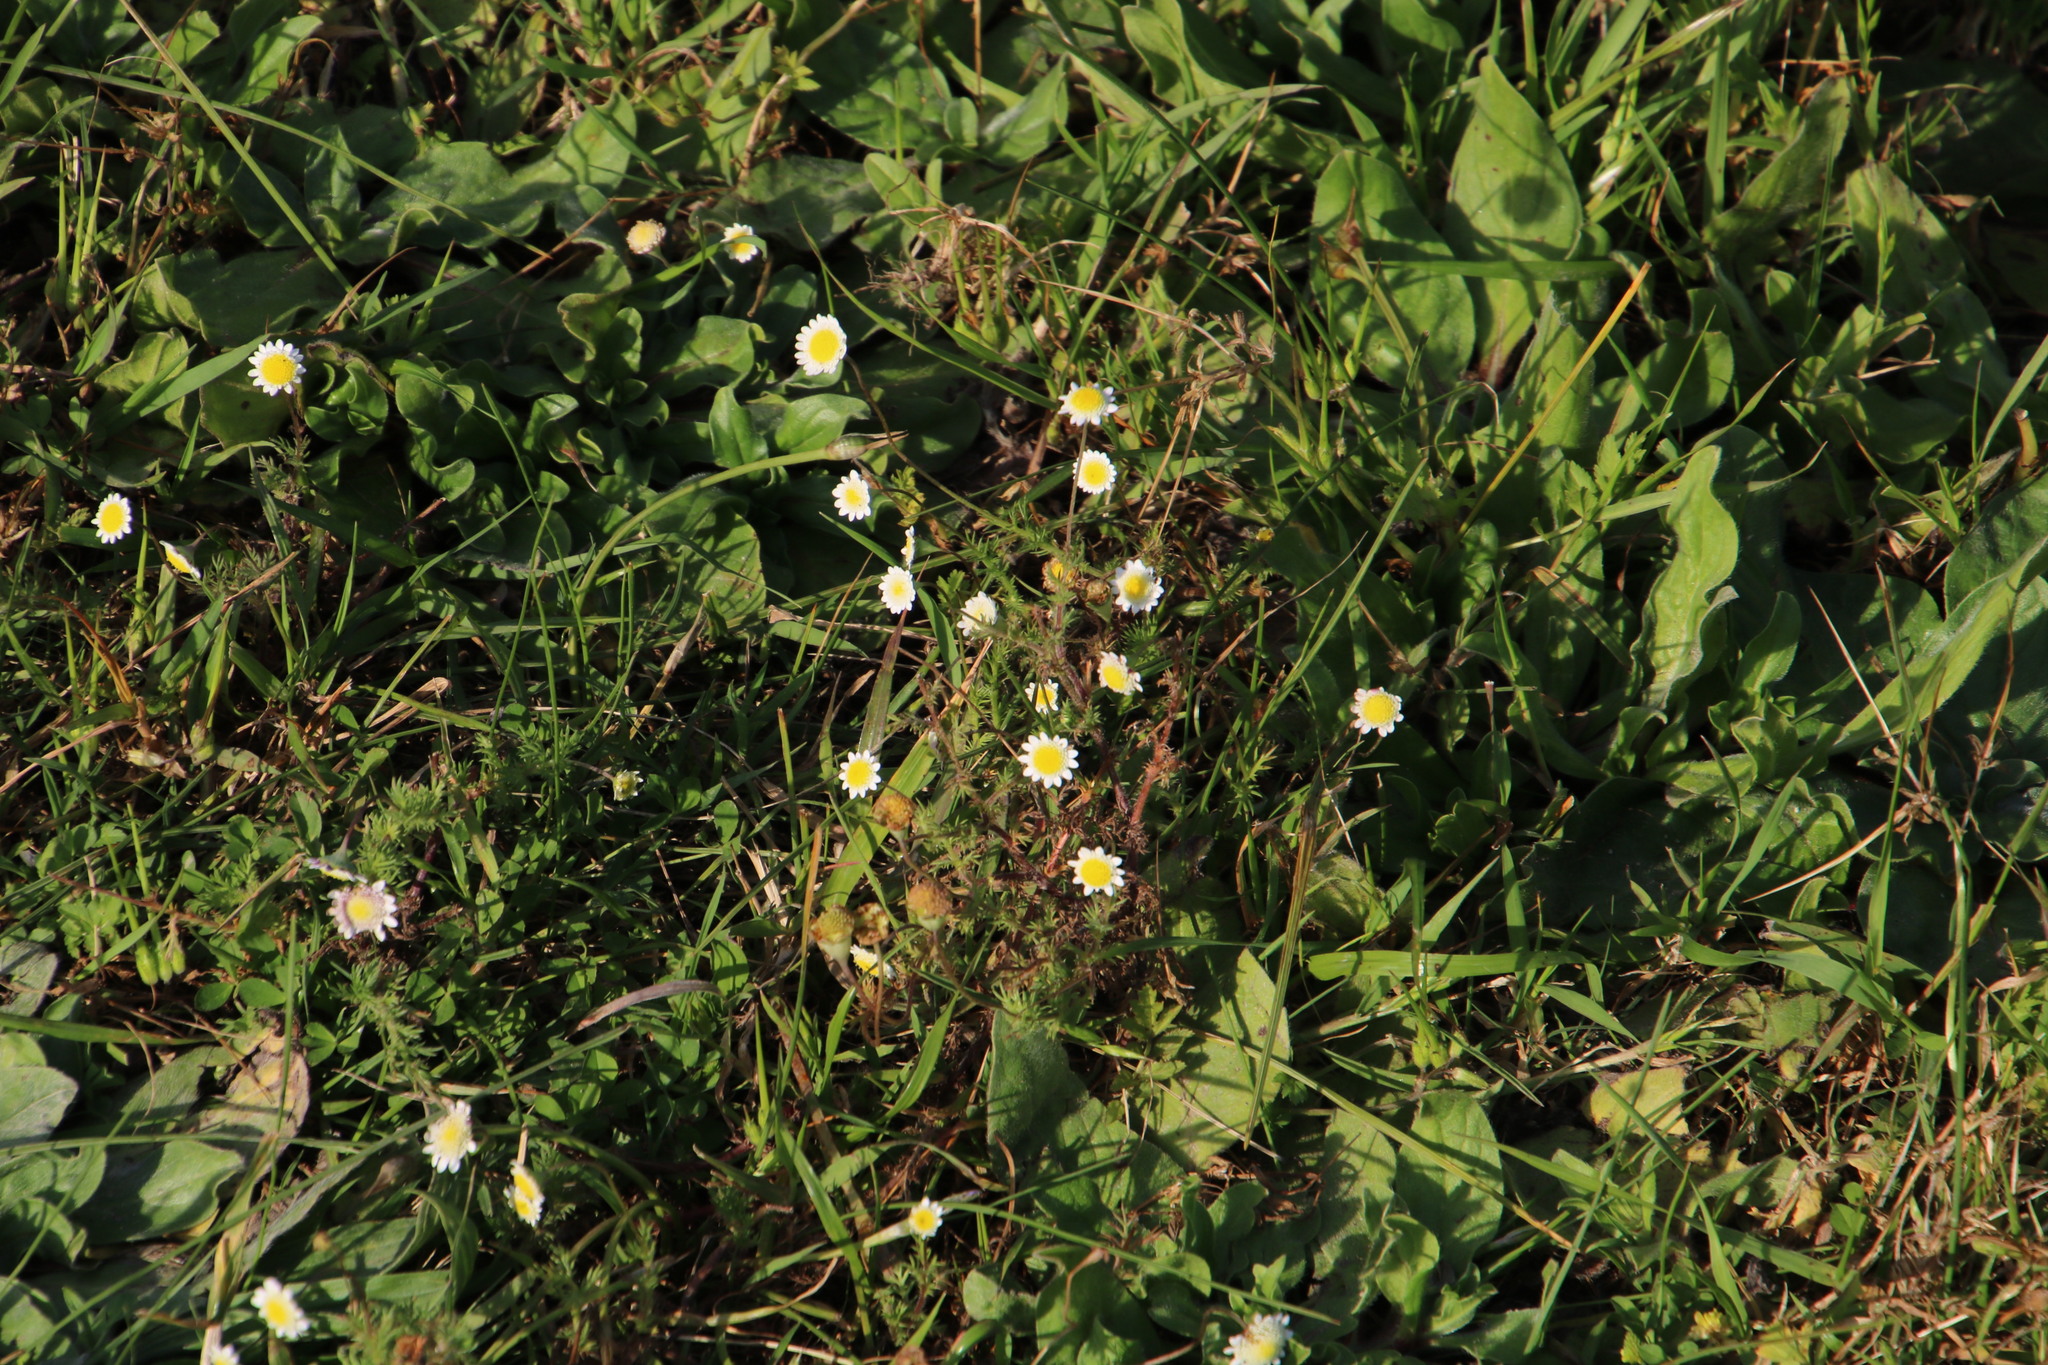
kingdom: Plantae
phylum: Tracheophyta
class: Magnoliopsida
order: Asterales
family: Asteraceae
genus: Cotula
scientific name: Cotula turbinata
